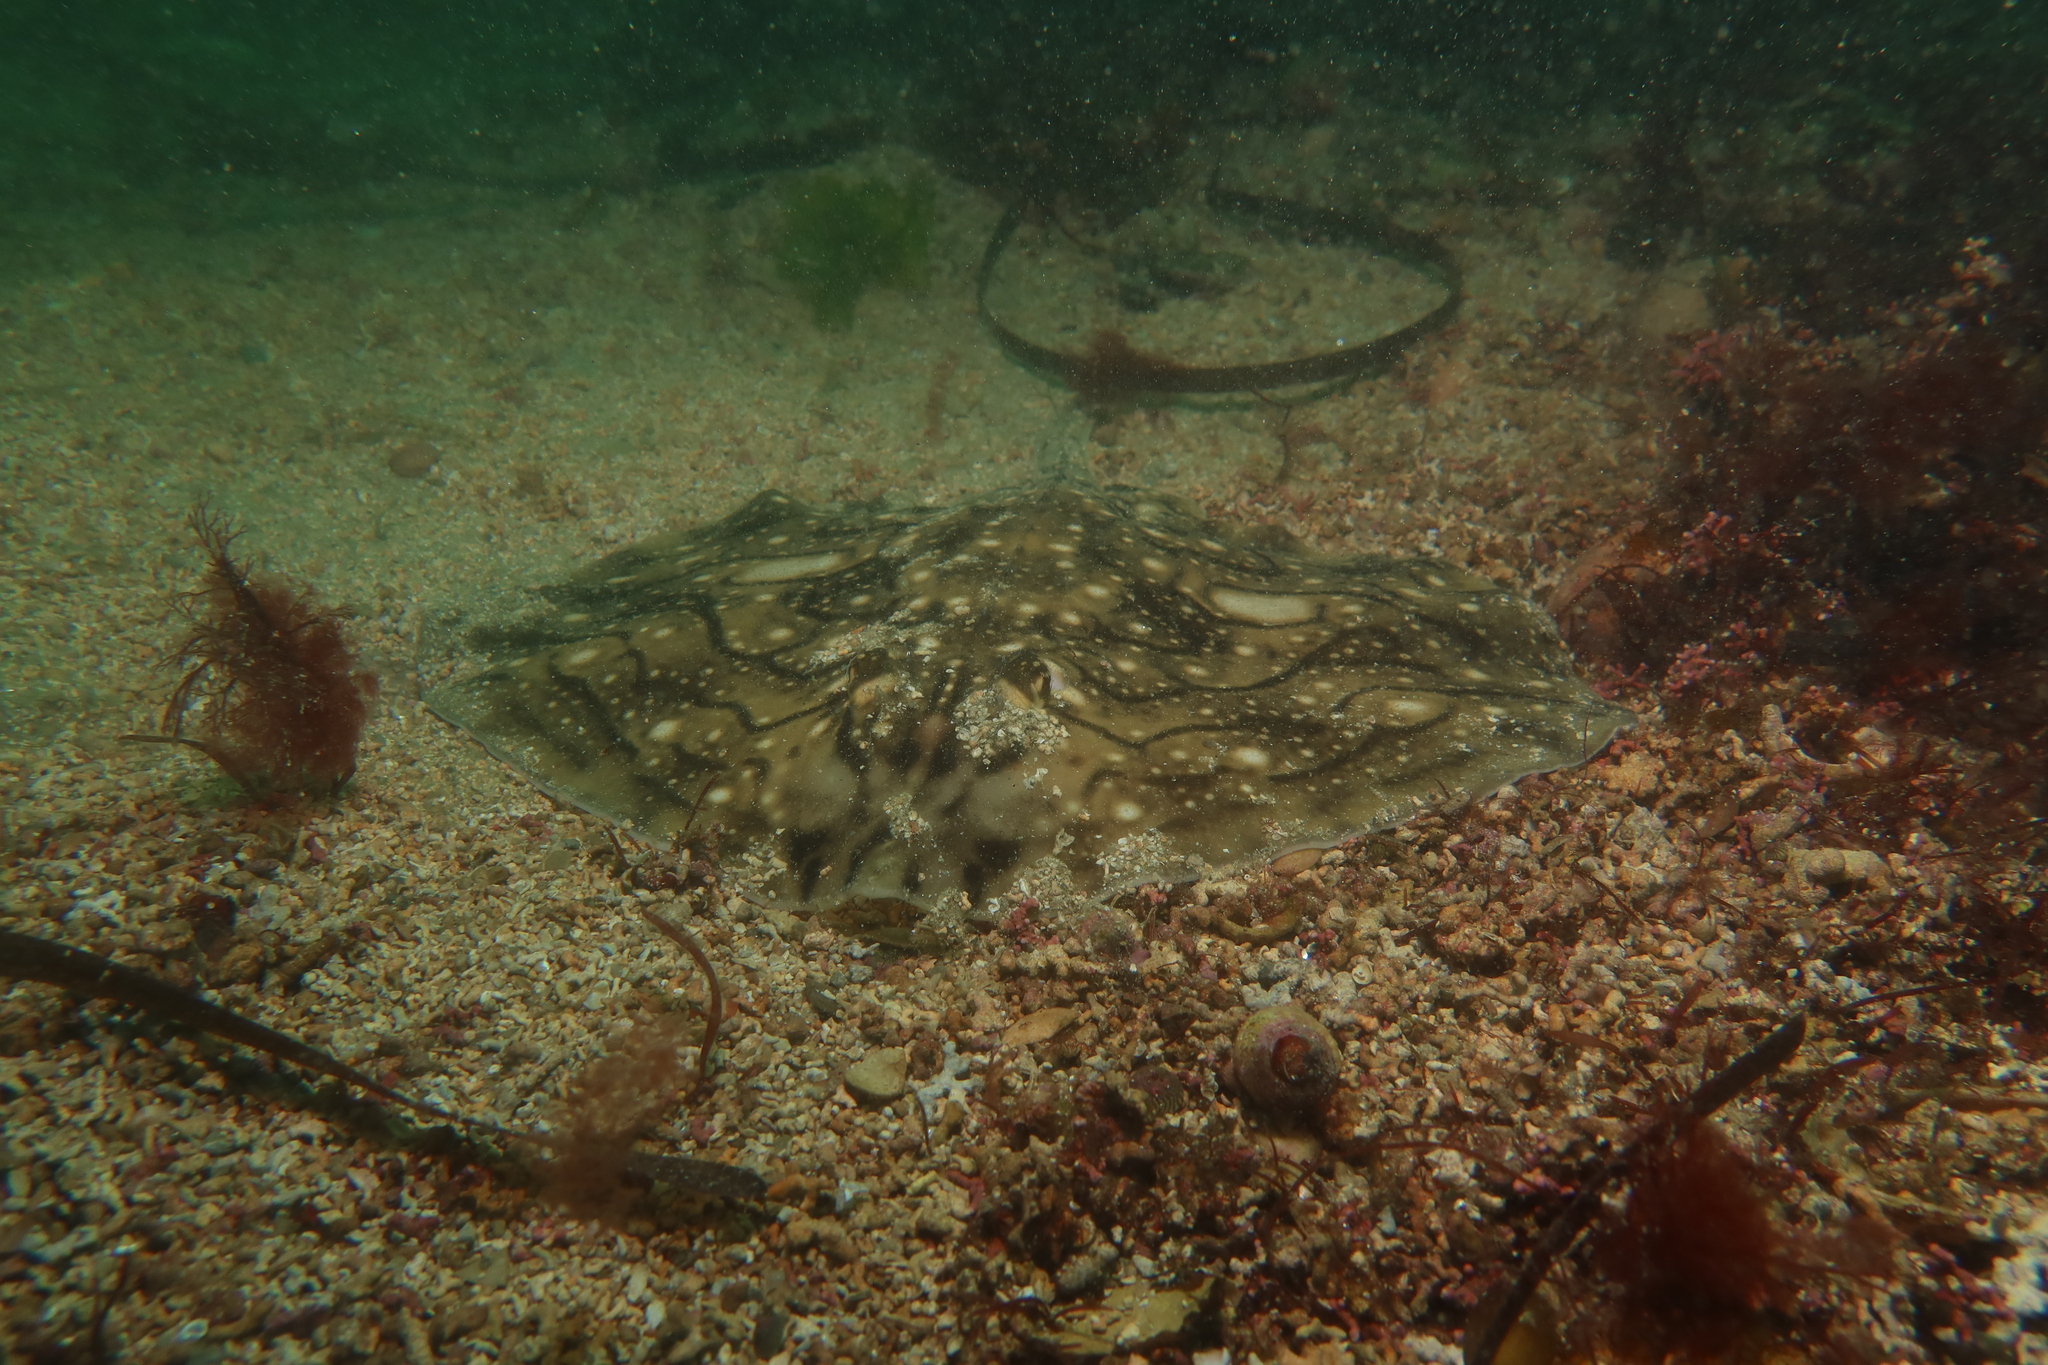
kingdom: Animalia
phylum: Chordata
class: Elasmobranchii
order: Rajiformes
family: Rajidae
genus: Raja
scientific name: Raja undulata
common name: Undulate ray
